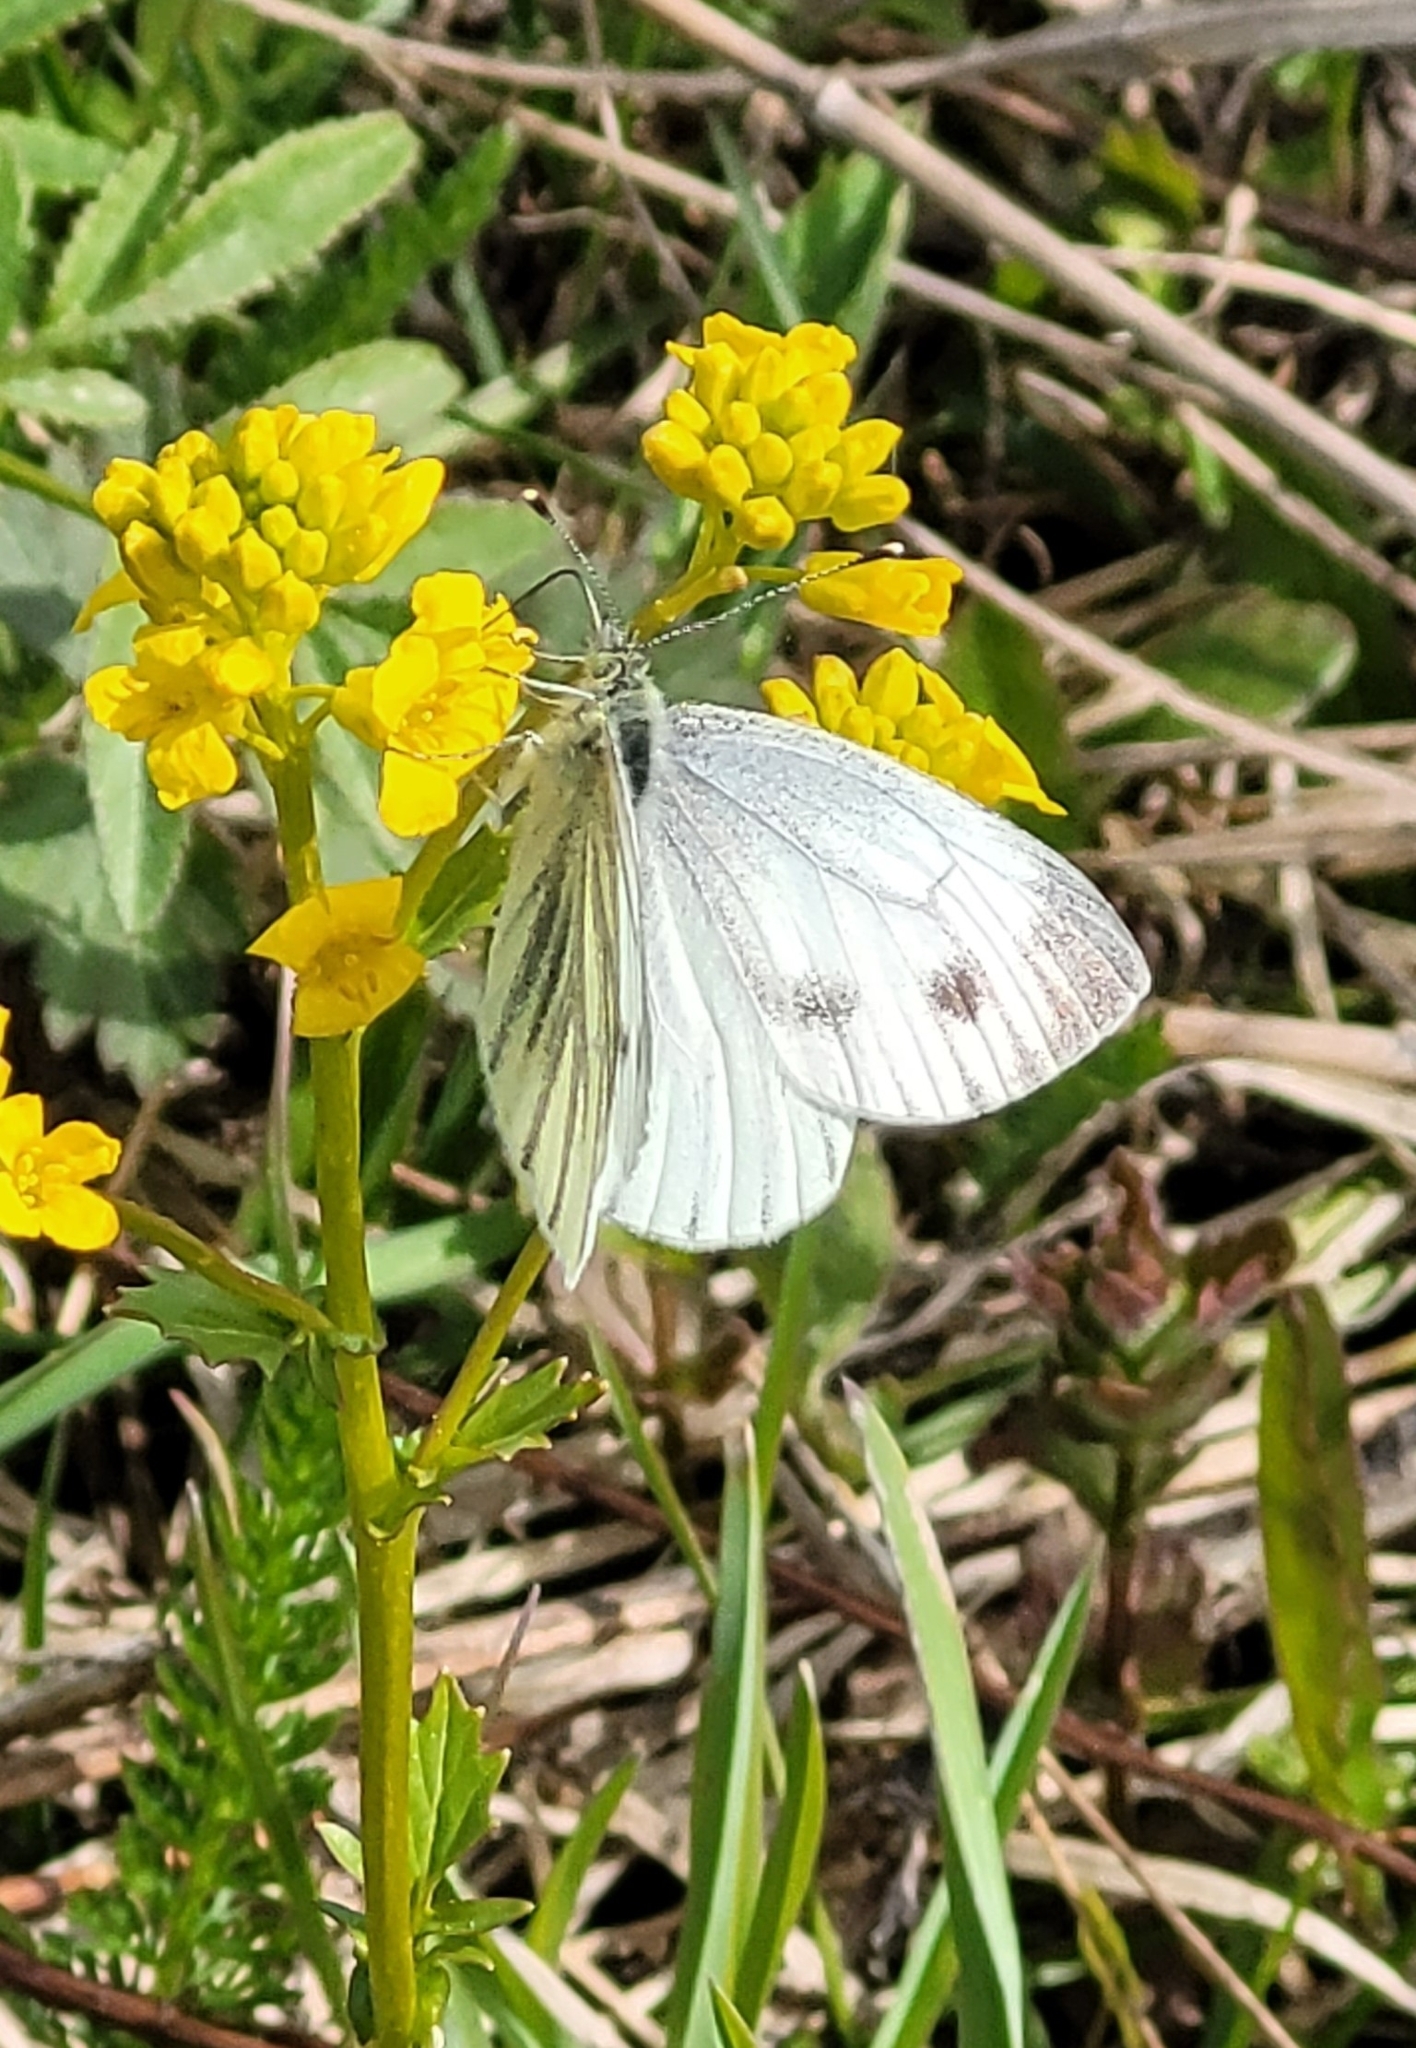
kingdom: Animalia
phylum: Arthropoda
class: Insecta
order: Lepidoptera
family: Pieridae
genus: Pieris
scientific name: Pieris napi
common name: Green-veined white
